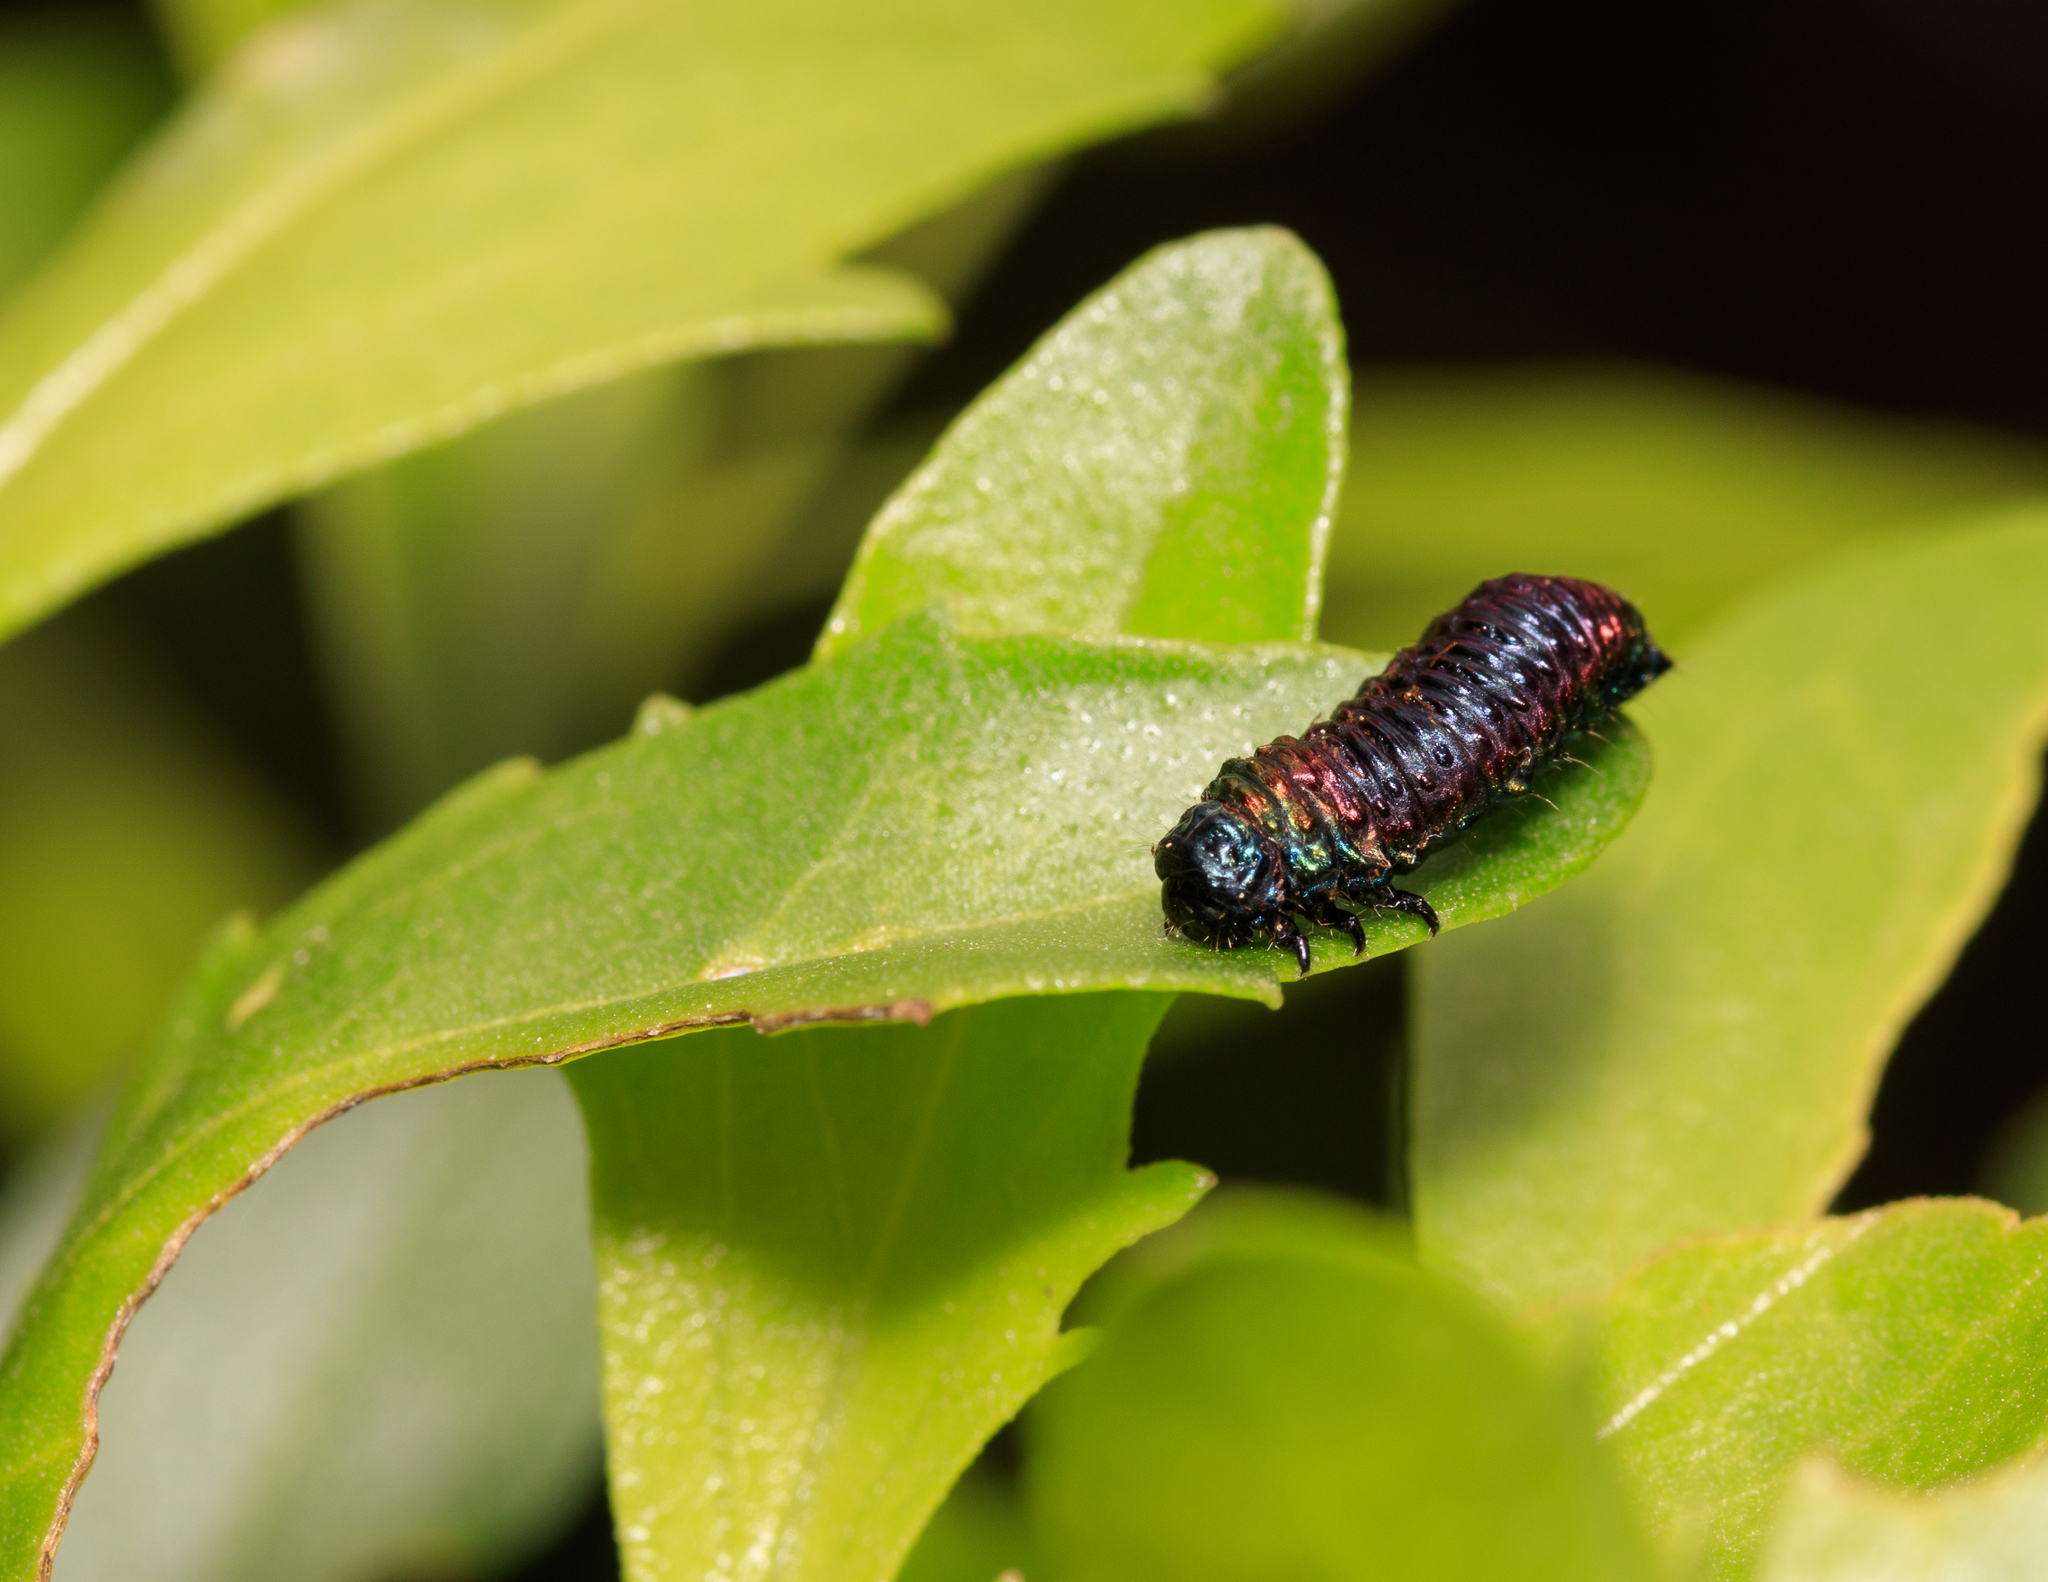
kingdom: Animalia
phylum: Arthropoda
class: Insecta
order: Coleoptera
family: Chrysomelidae
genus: Trirhabda
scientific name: Trirhabda bacharidis
